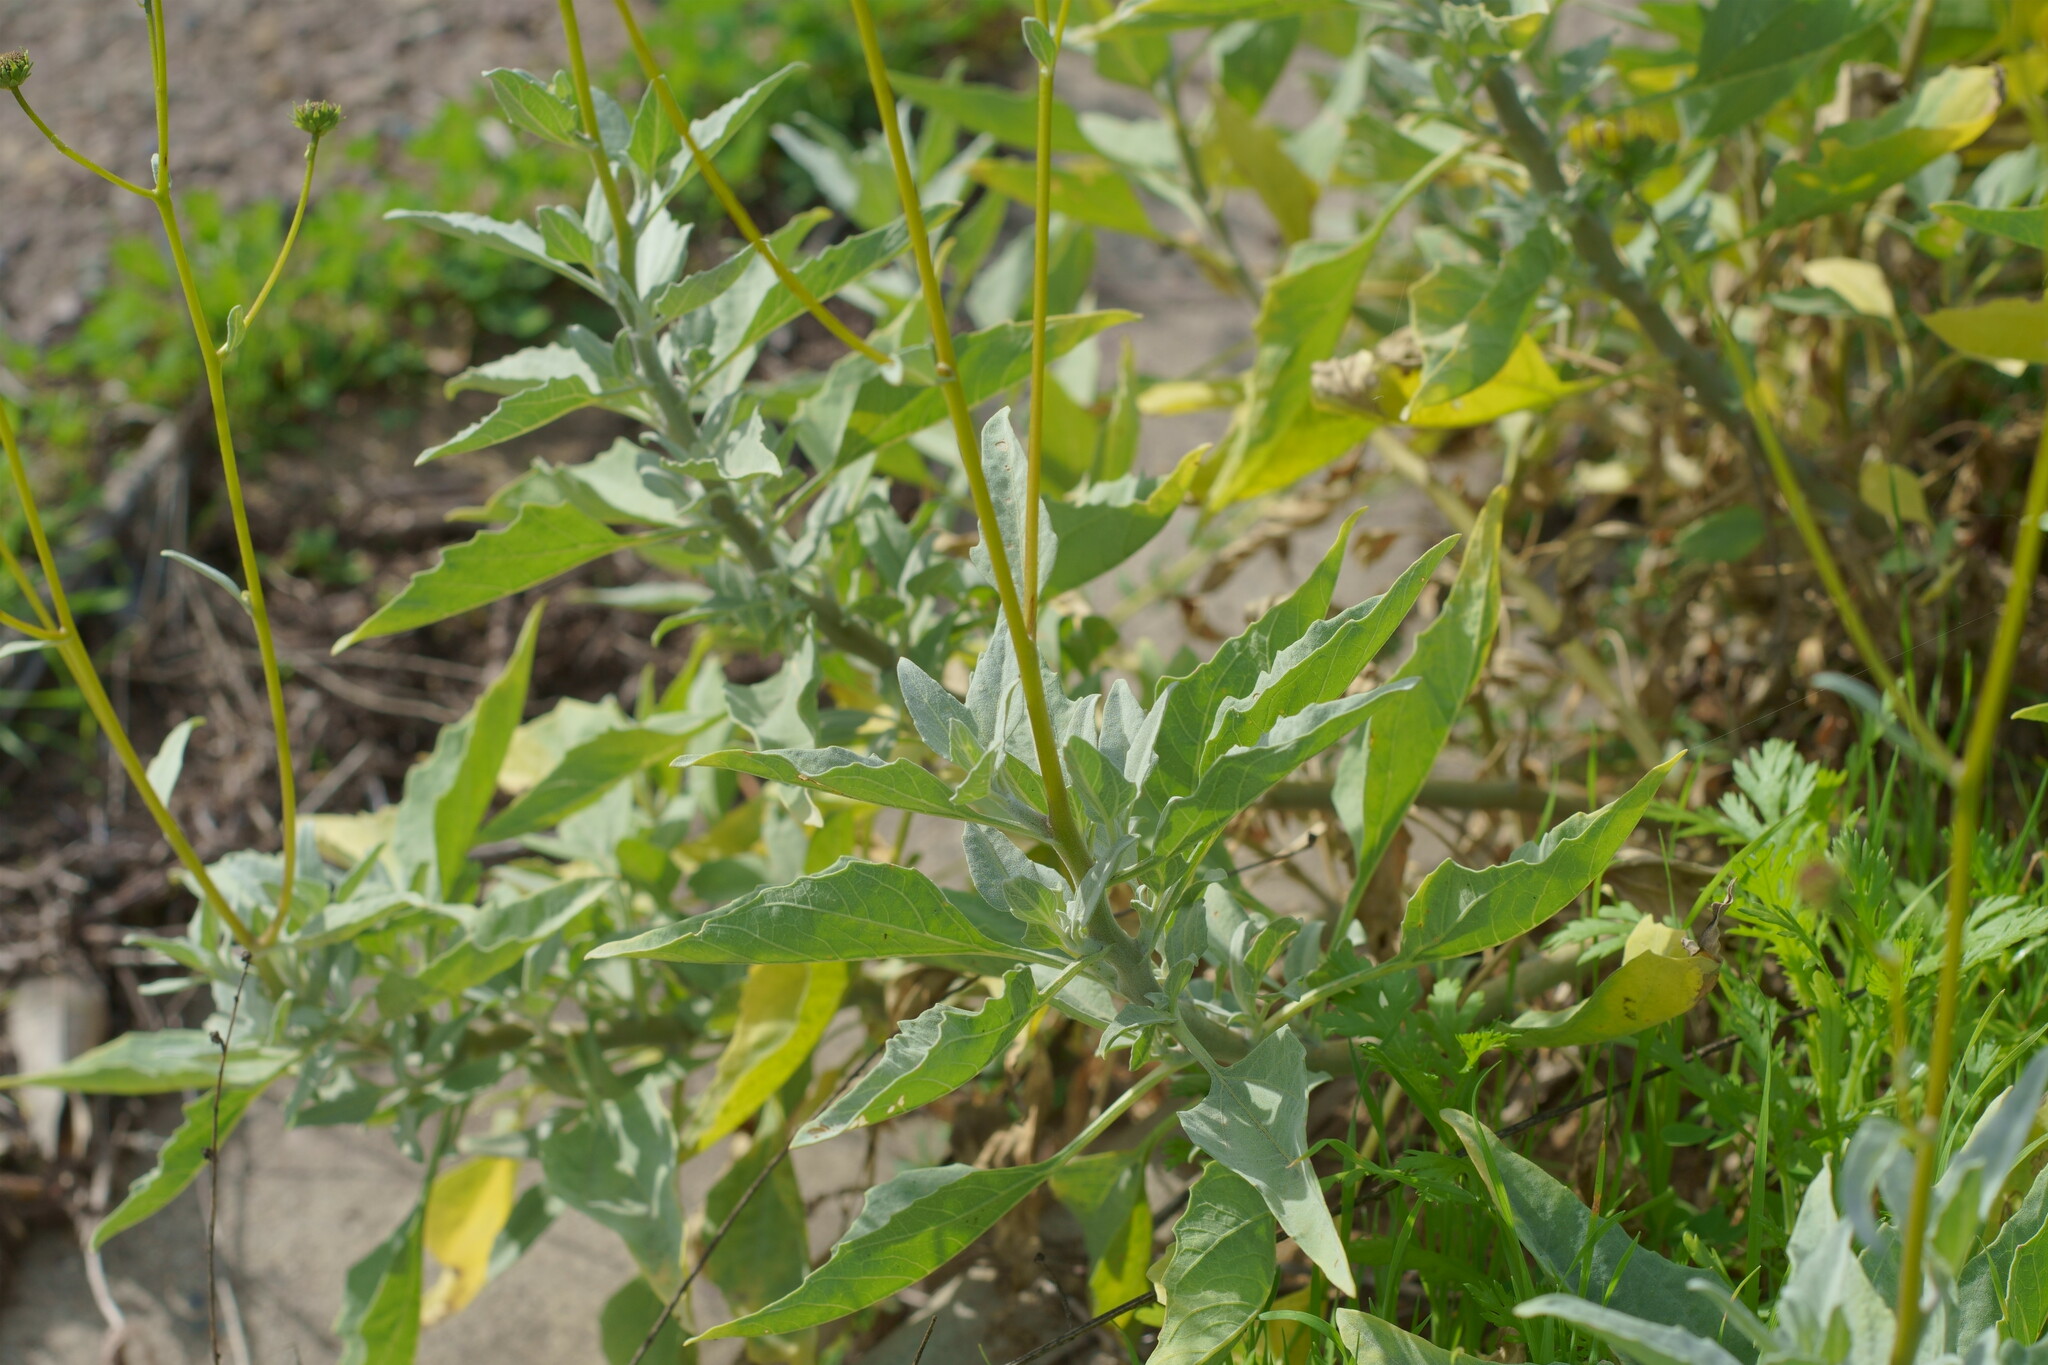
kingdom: Plantae
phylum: Tracheophyta
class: Magnoliopsida
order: Asterales
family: Asteraceae
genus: Encelia
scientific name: Encelia
